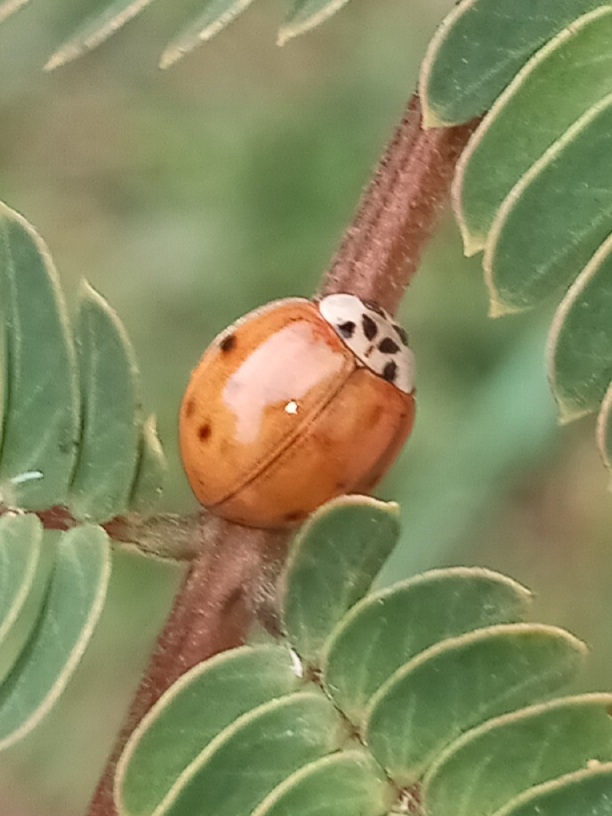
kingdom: Animalia
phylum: Arthropoda
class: Insecta
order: Coleoptera
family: Coccinellidae
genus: Harmonia
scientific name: Harmonia axyridis
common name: Harlequin ladybird
